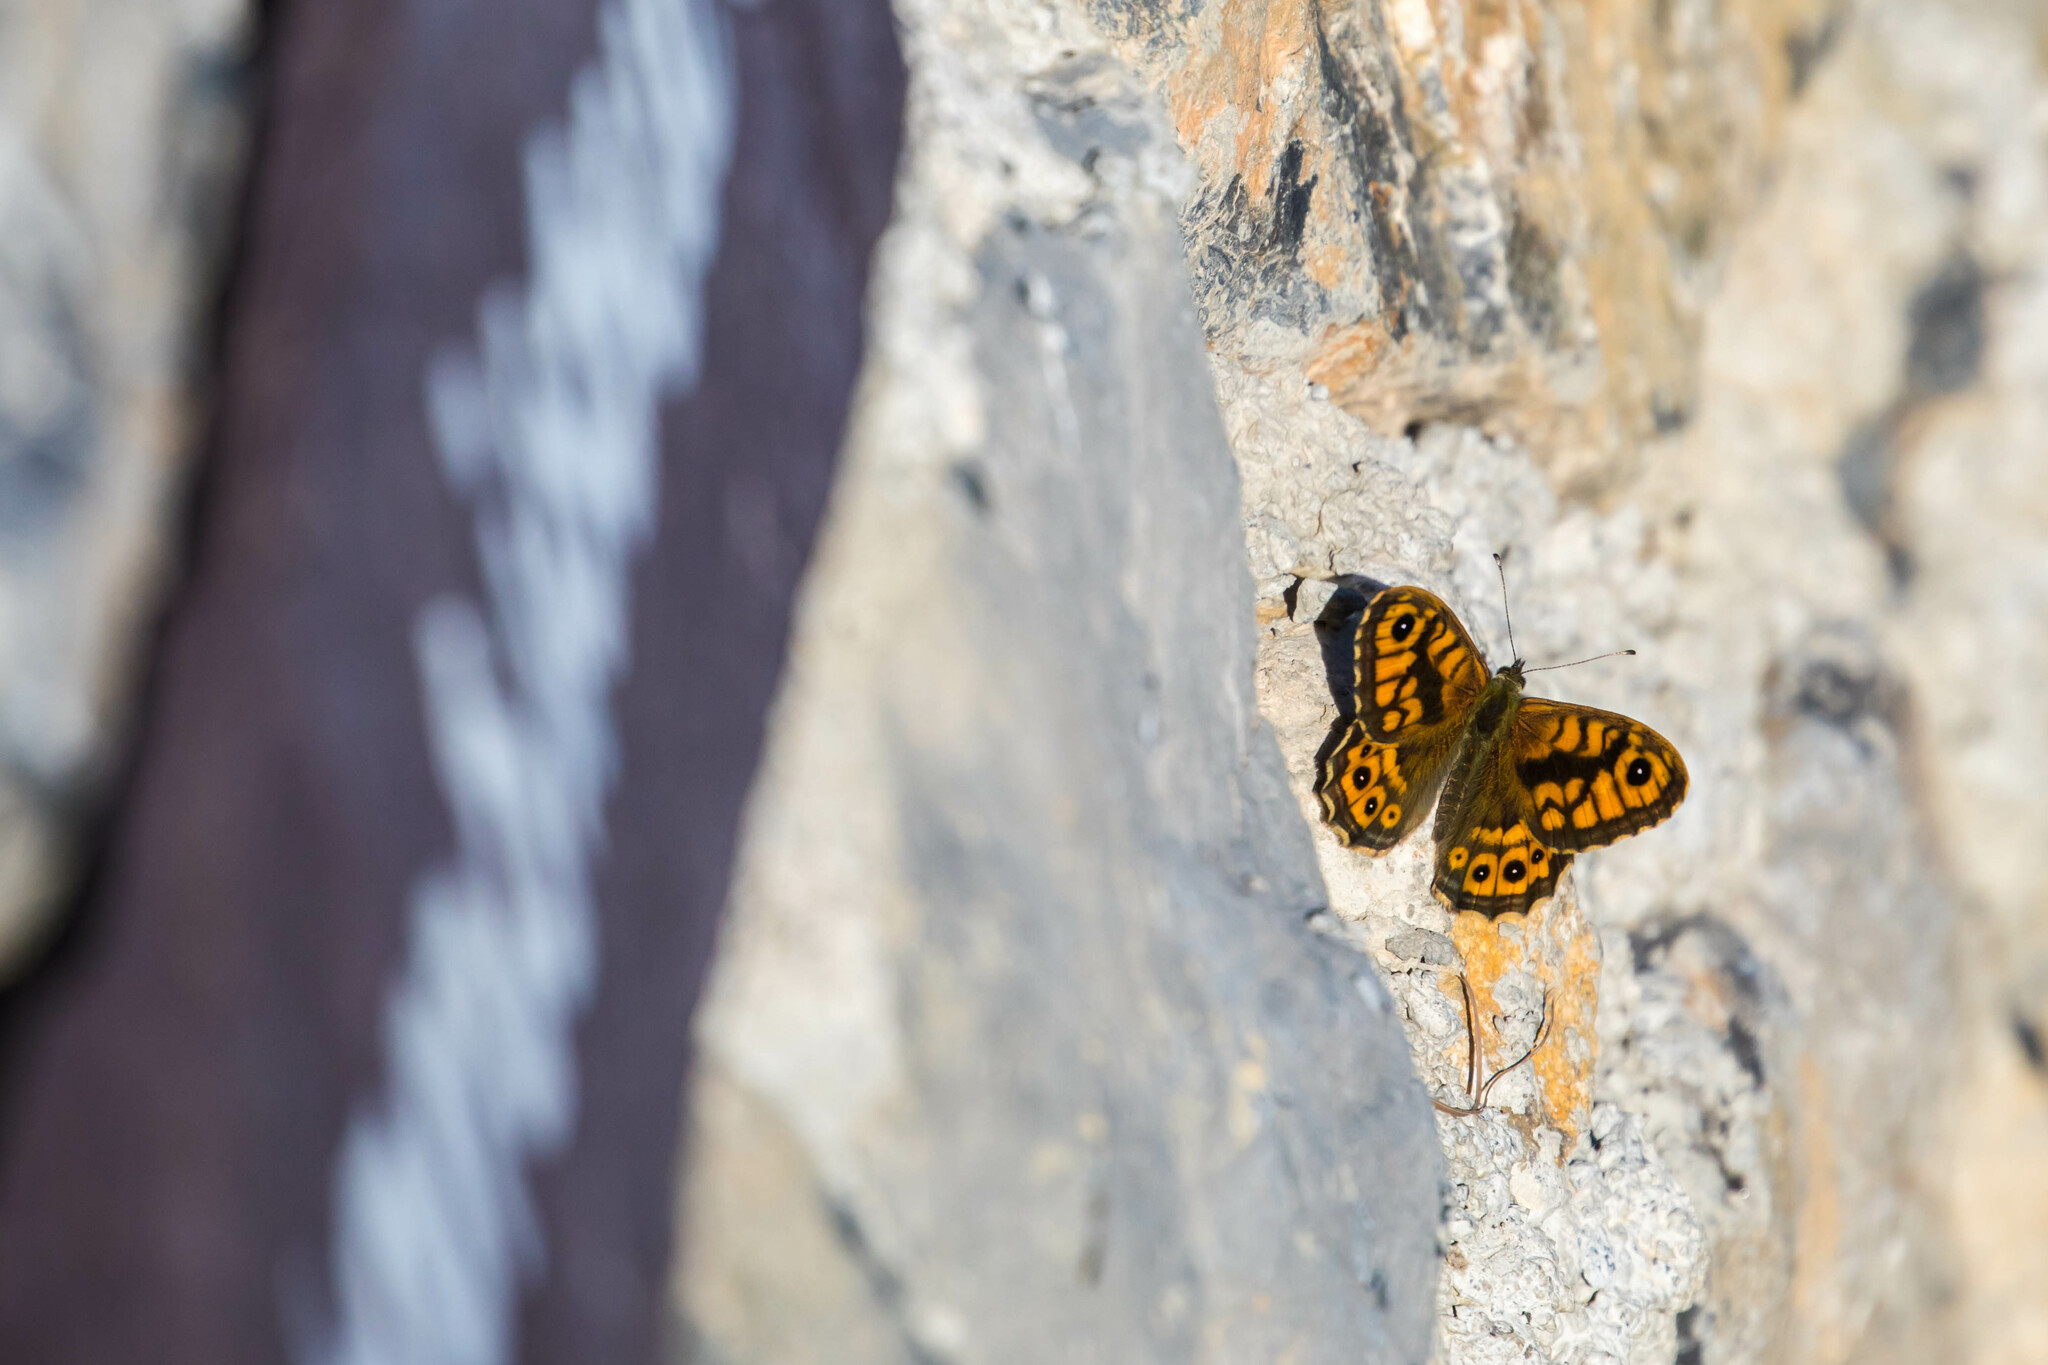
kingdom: Animalia
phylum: Arthropoda
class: Insecta
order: Lepidoptera
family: Nymphalidae
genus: Pararge
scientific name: Pararge Lasiommata megera
